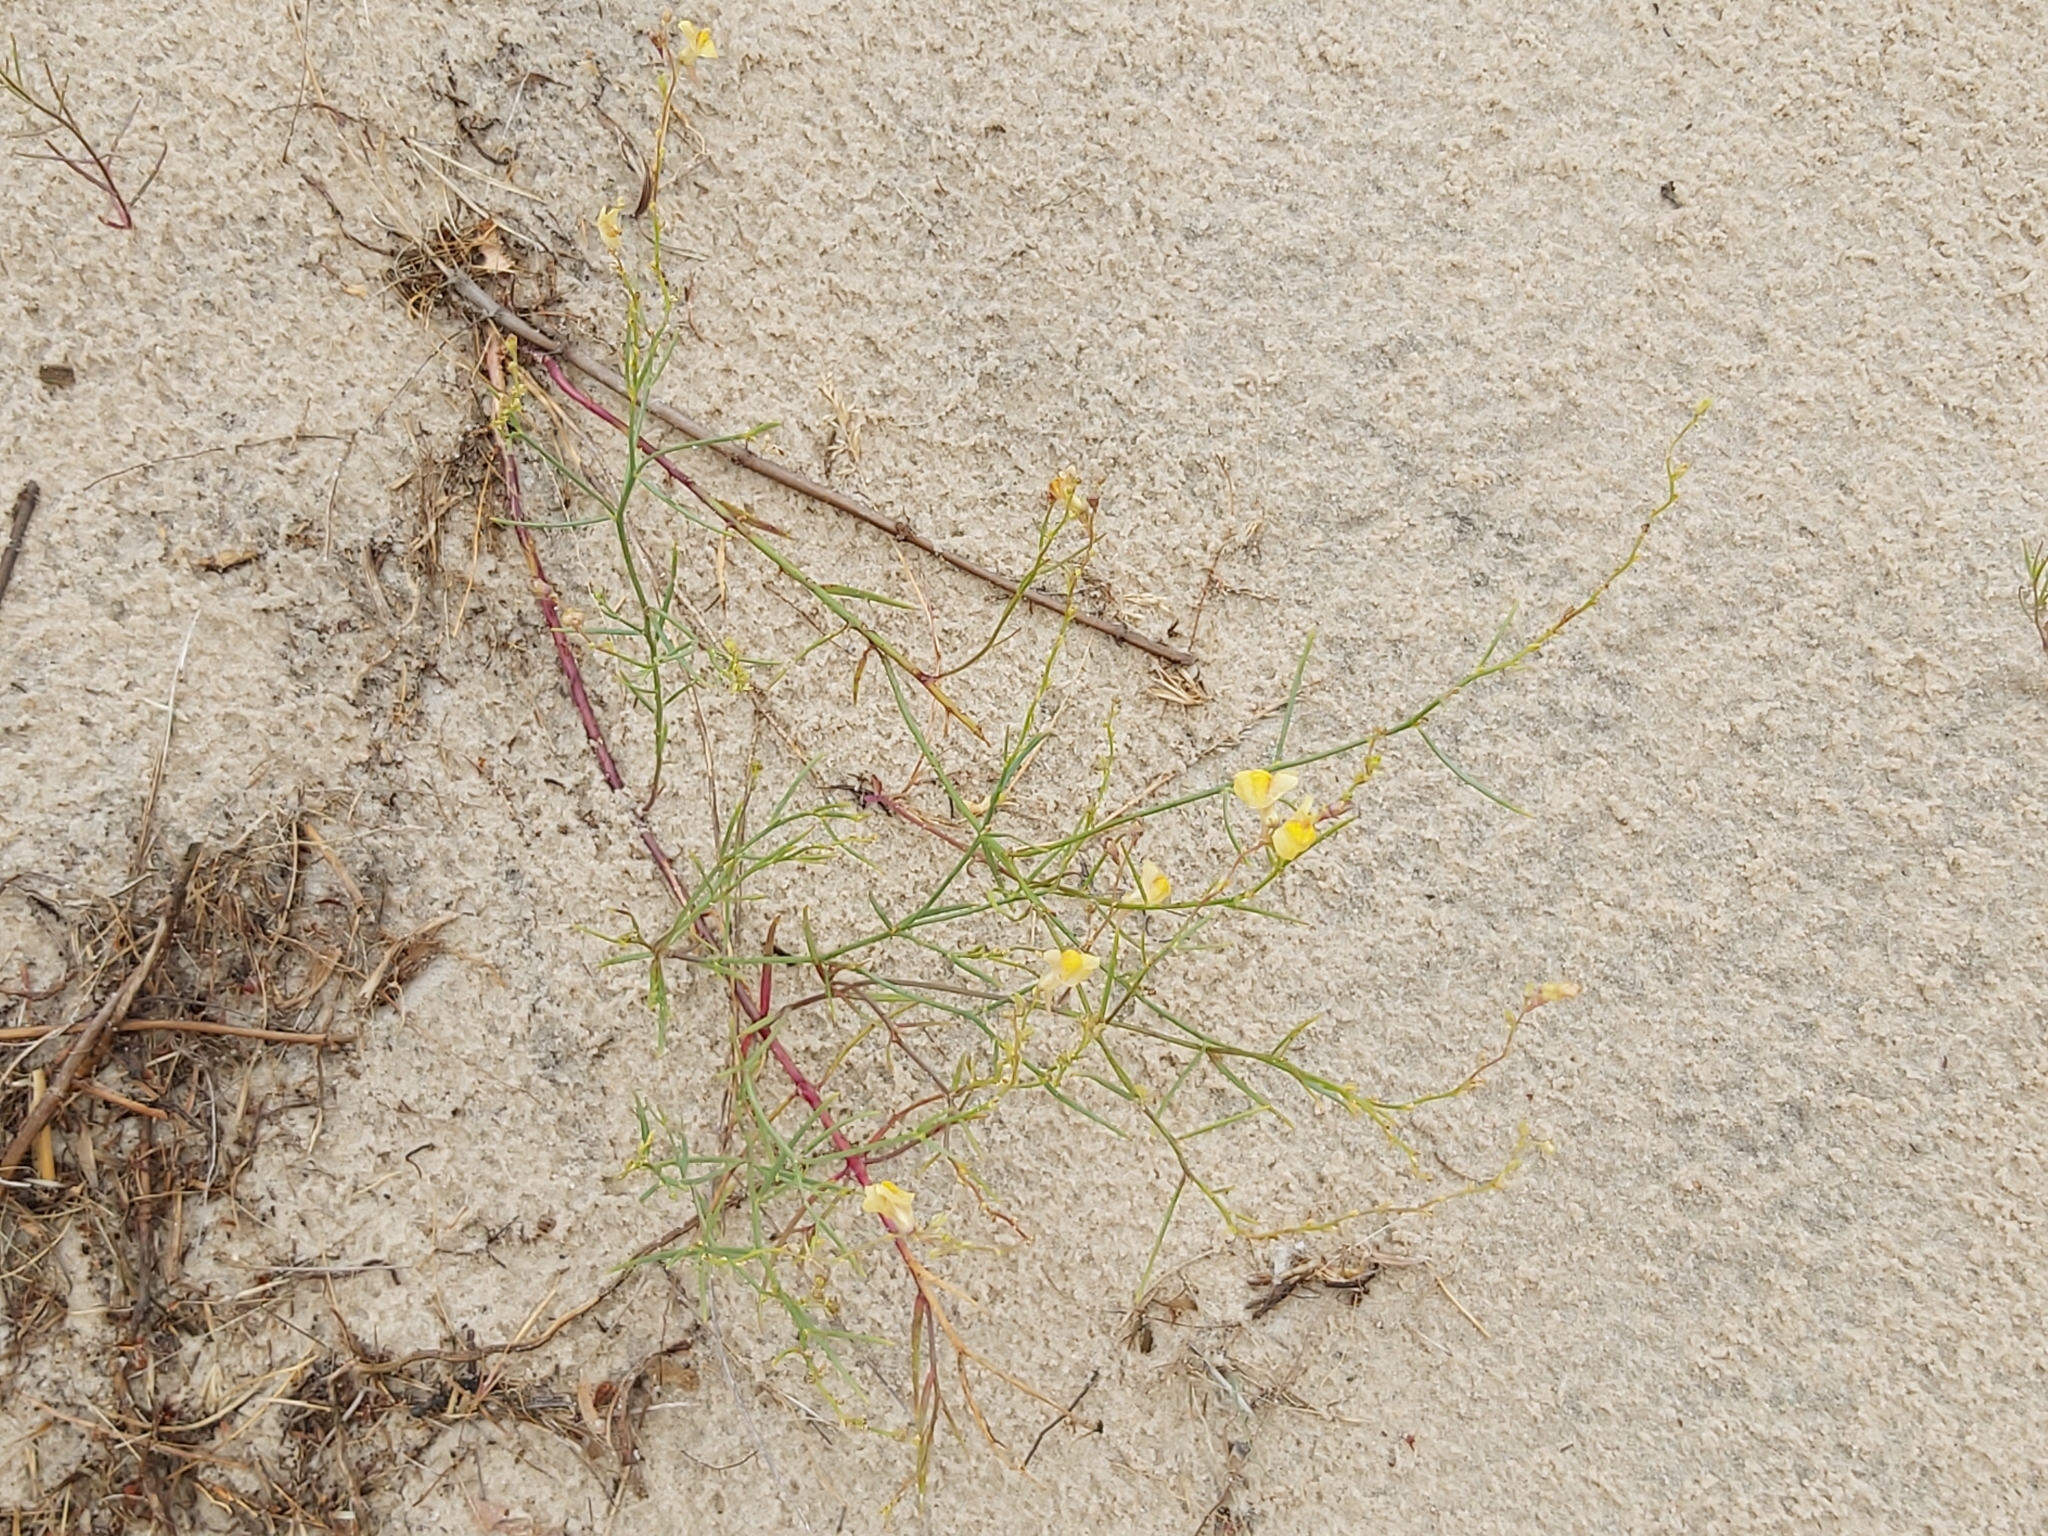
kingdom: Plantae
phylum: Tracheophyta
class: Magnoliopsida
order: Lamiales
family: Plantaginaceae
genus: Linaria
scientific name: Linaria loeselii
